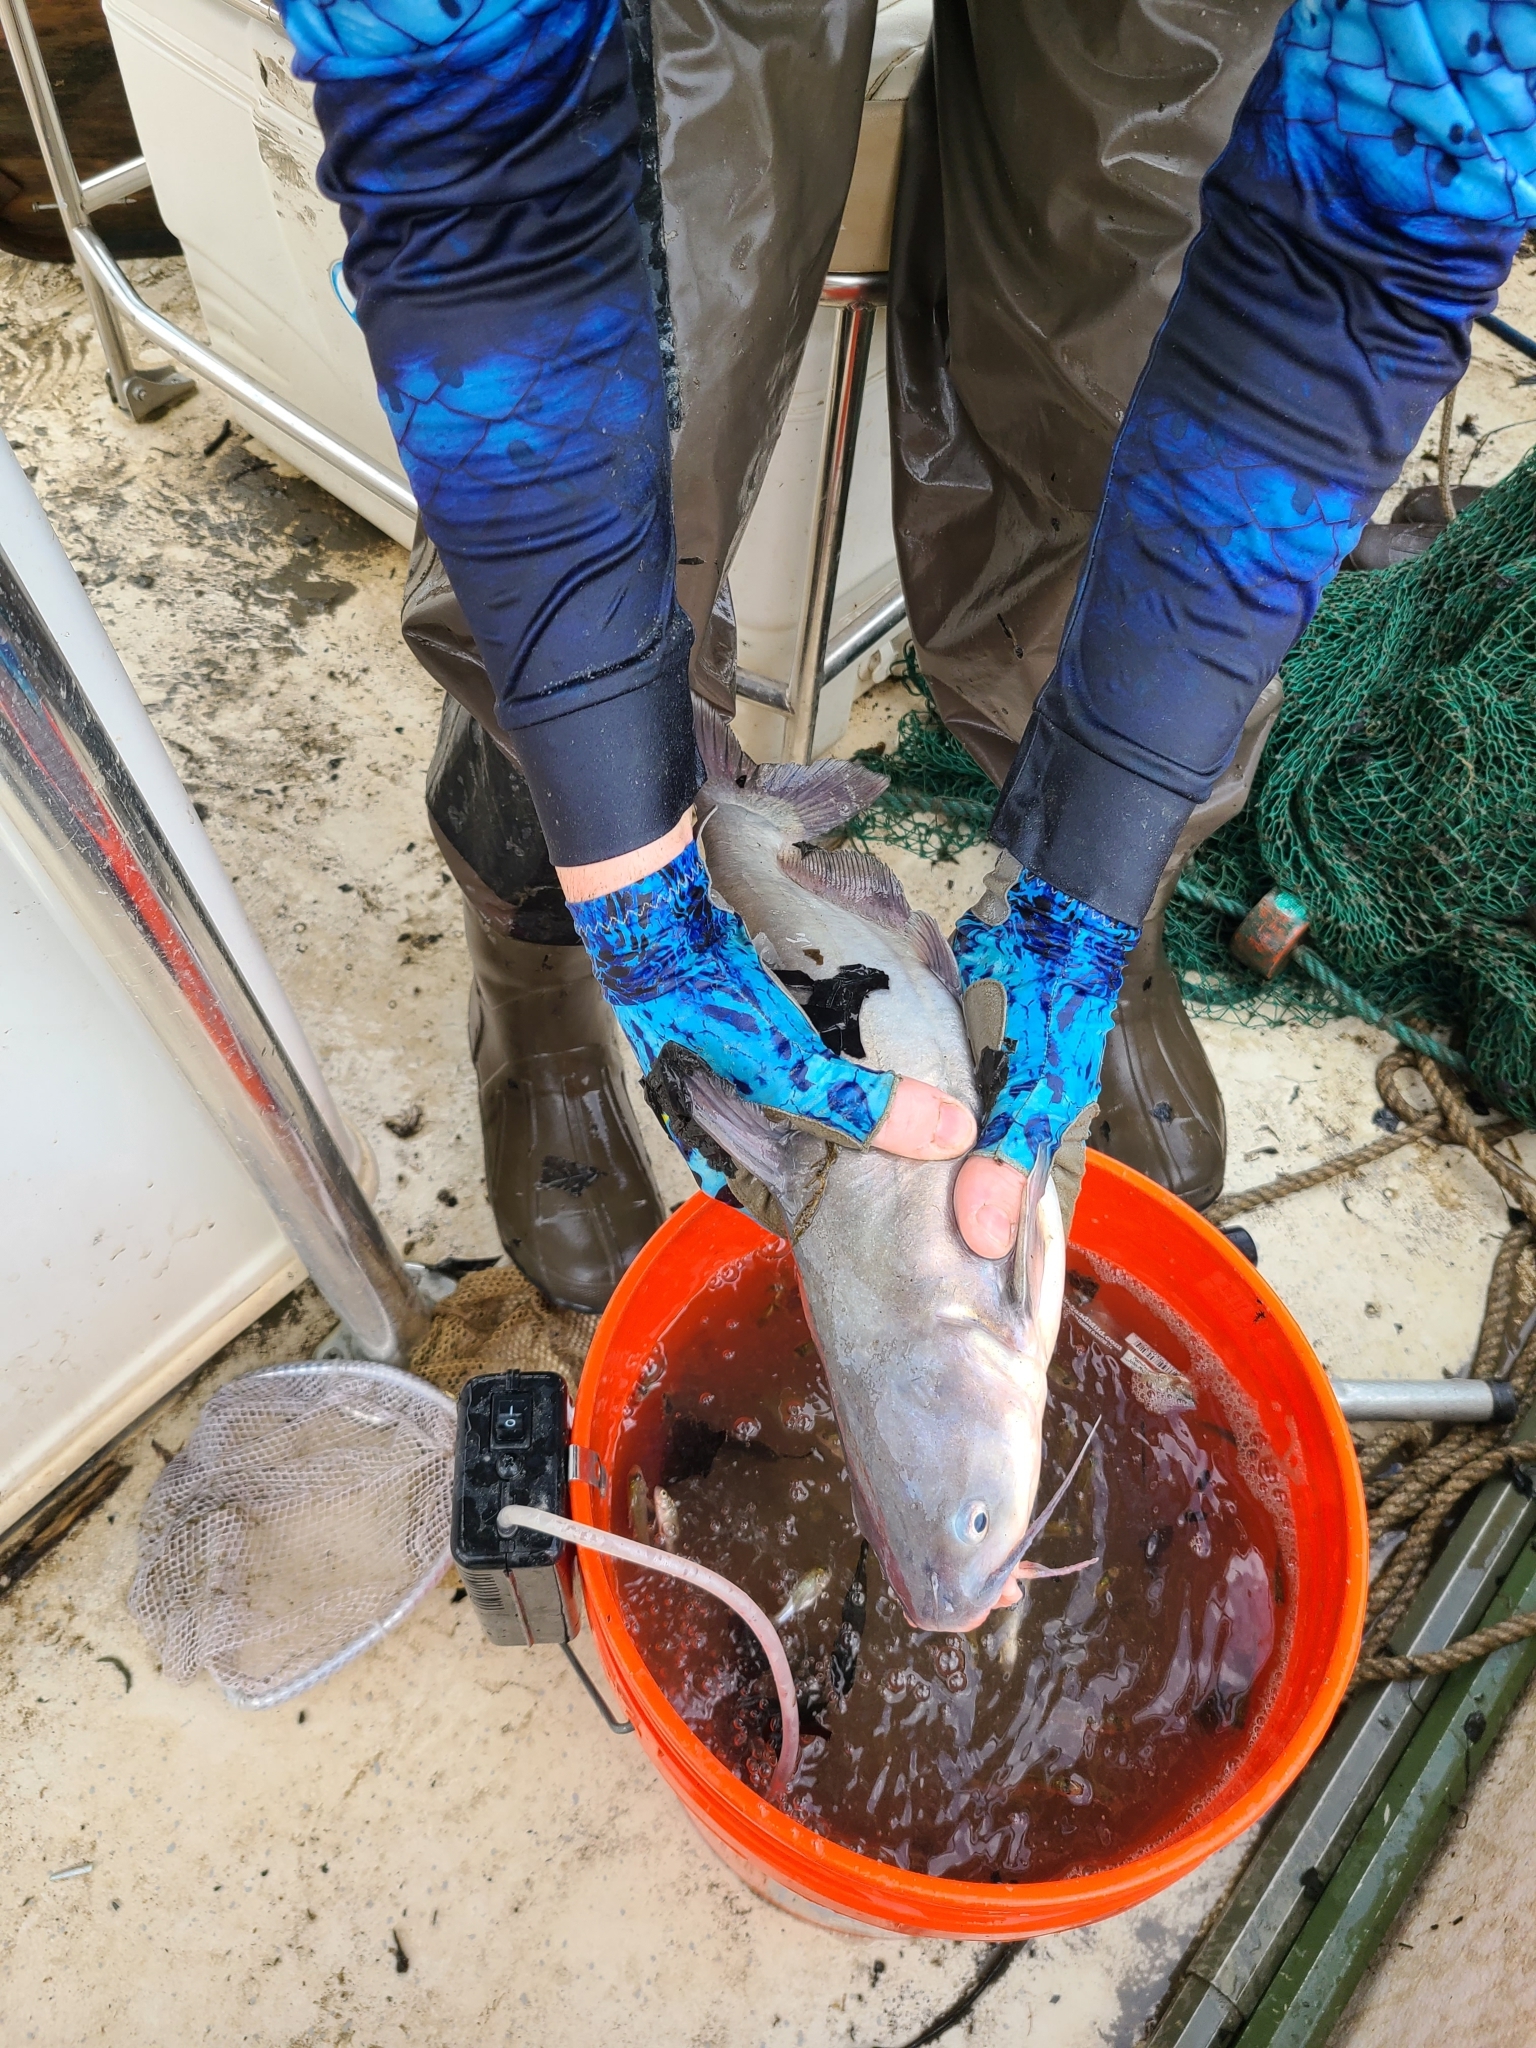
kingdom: Animalia
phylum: Chordata
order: Siluriformes
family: Ictaluridae
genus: Ictalurus
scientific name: Ictalurus furcatus
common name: Blue catfish
